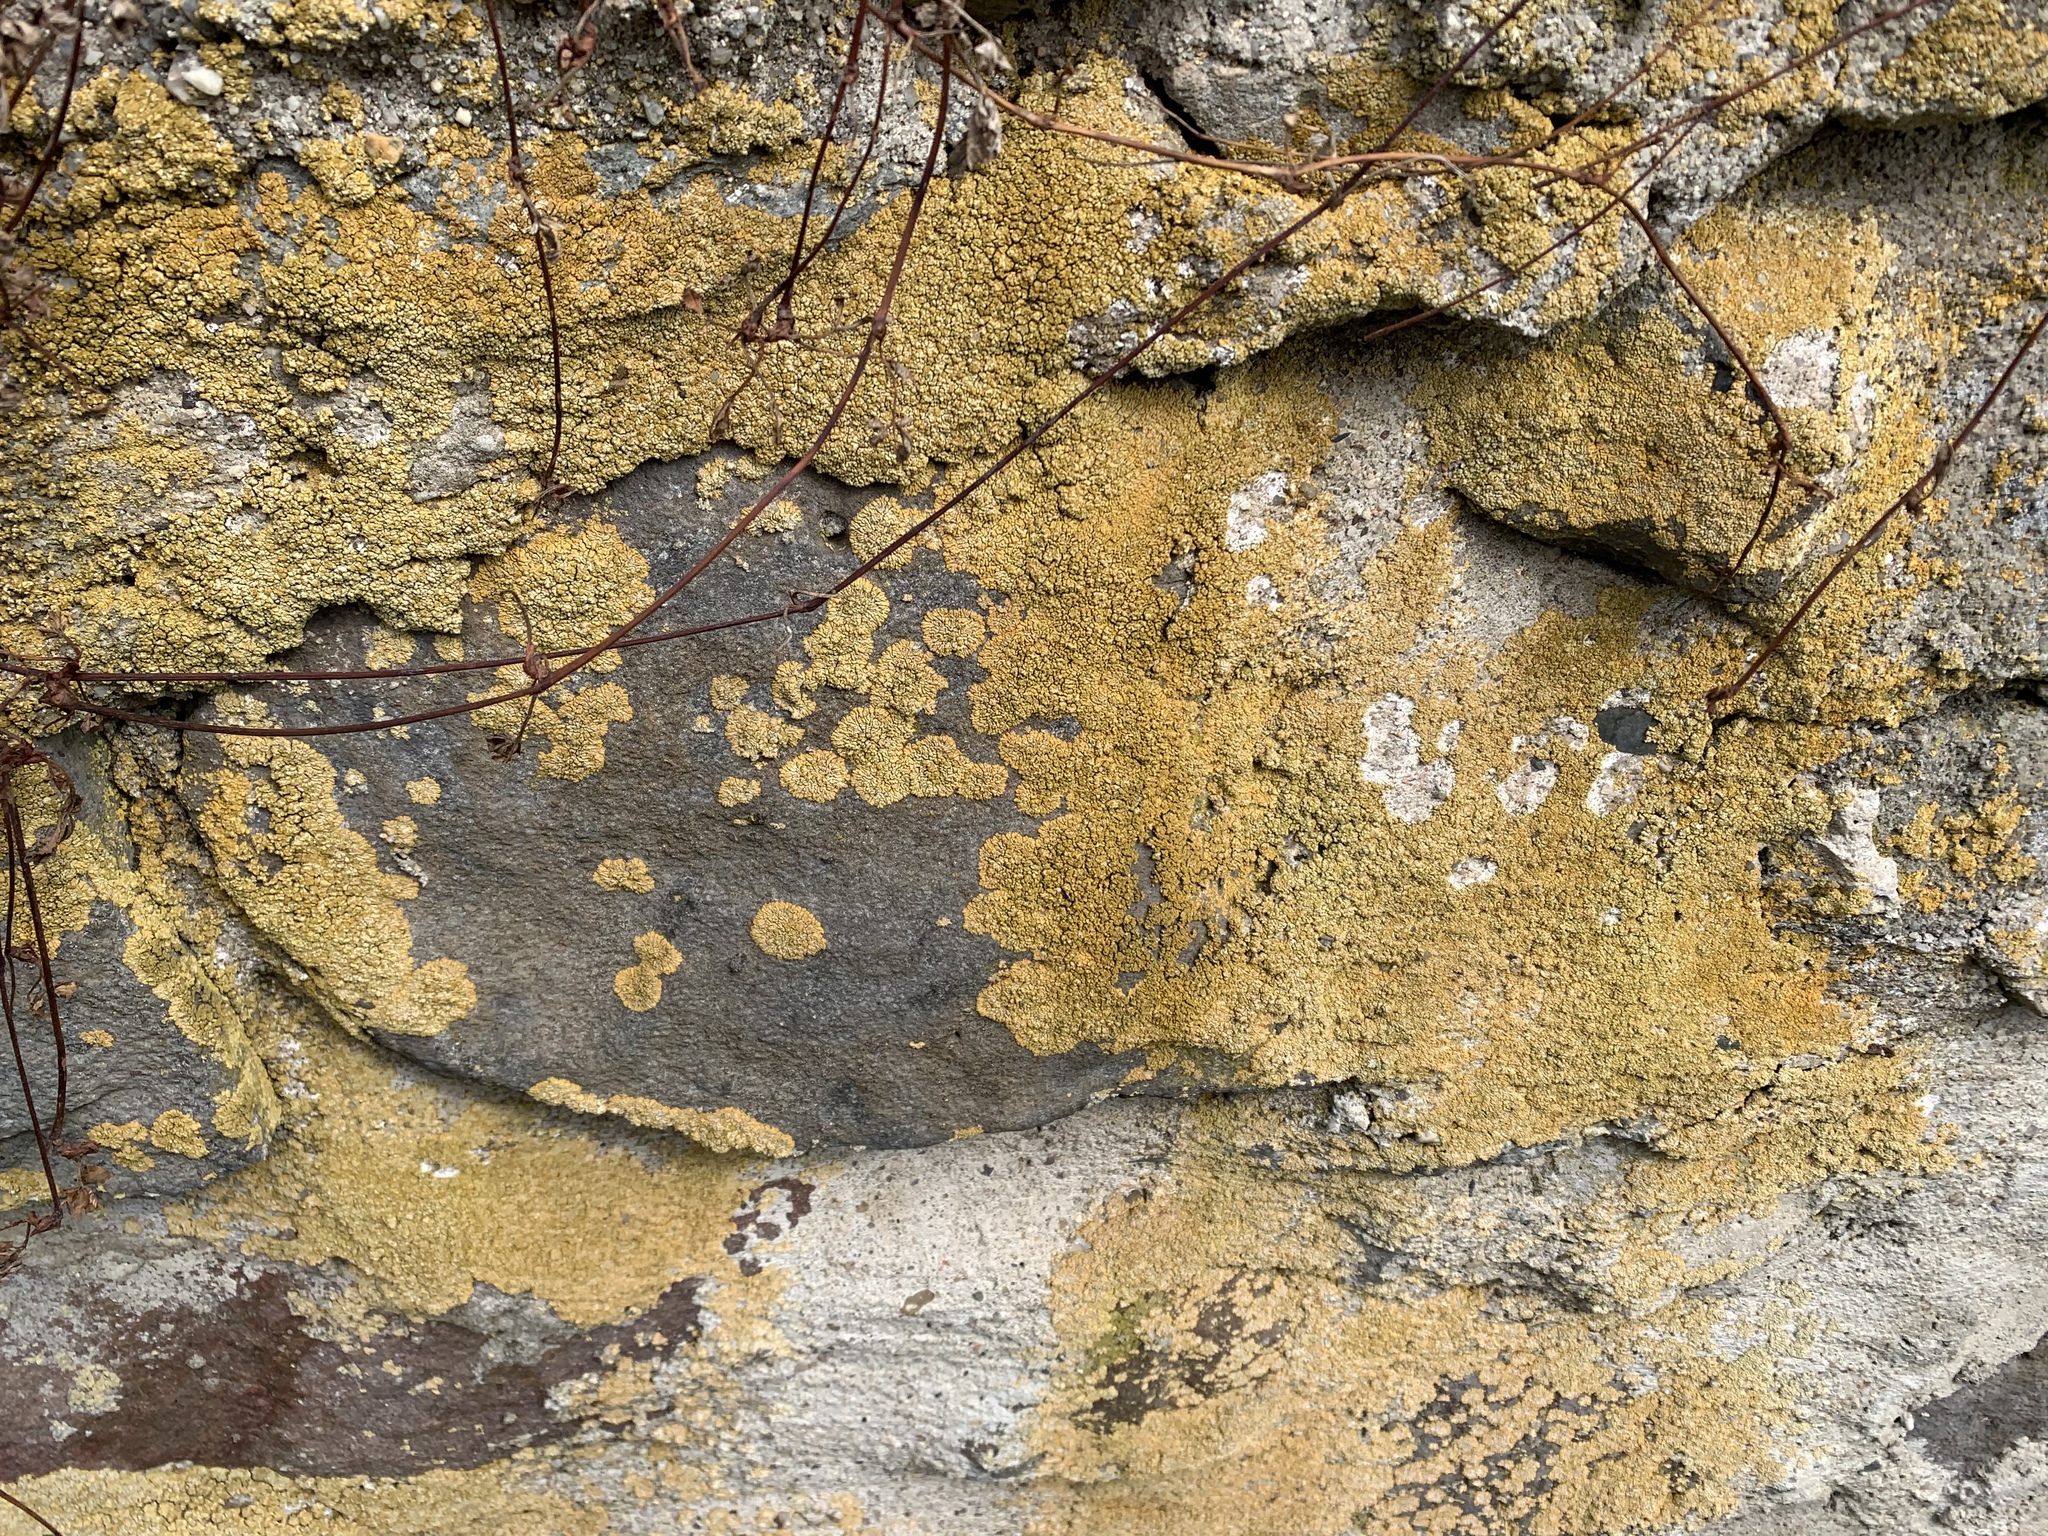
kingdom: Fungi
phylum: Ascomycota
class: Lecanoromycetes
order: Teloschistales
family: Teloschistaceae
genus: Calogaya
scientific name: Calogaya decipiens
